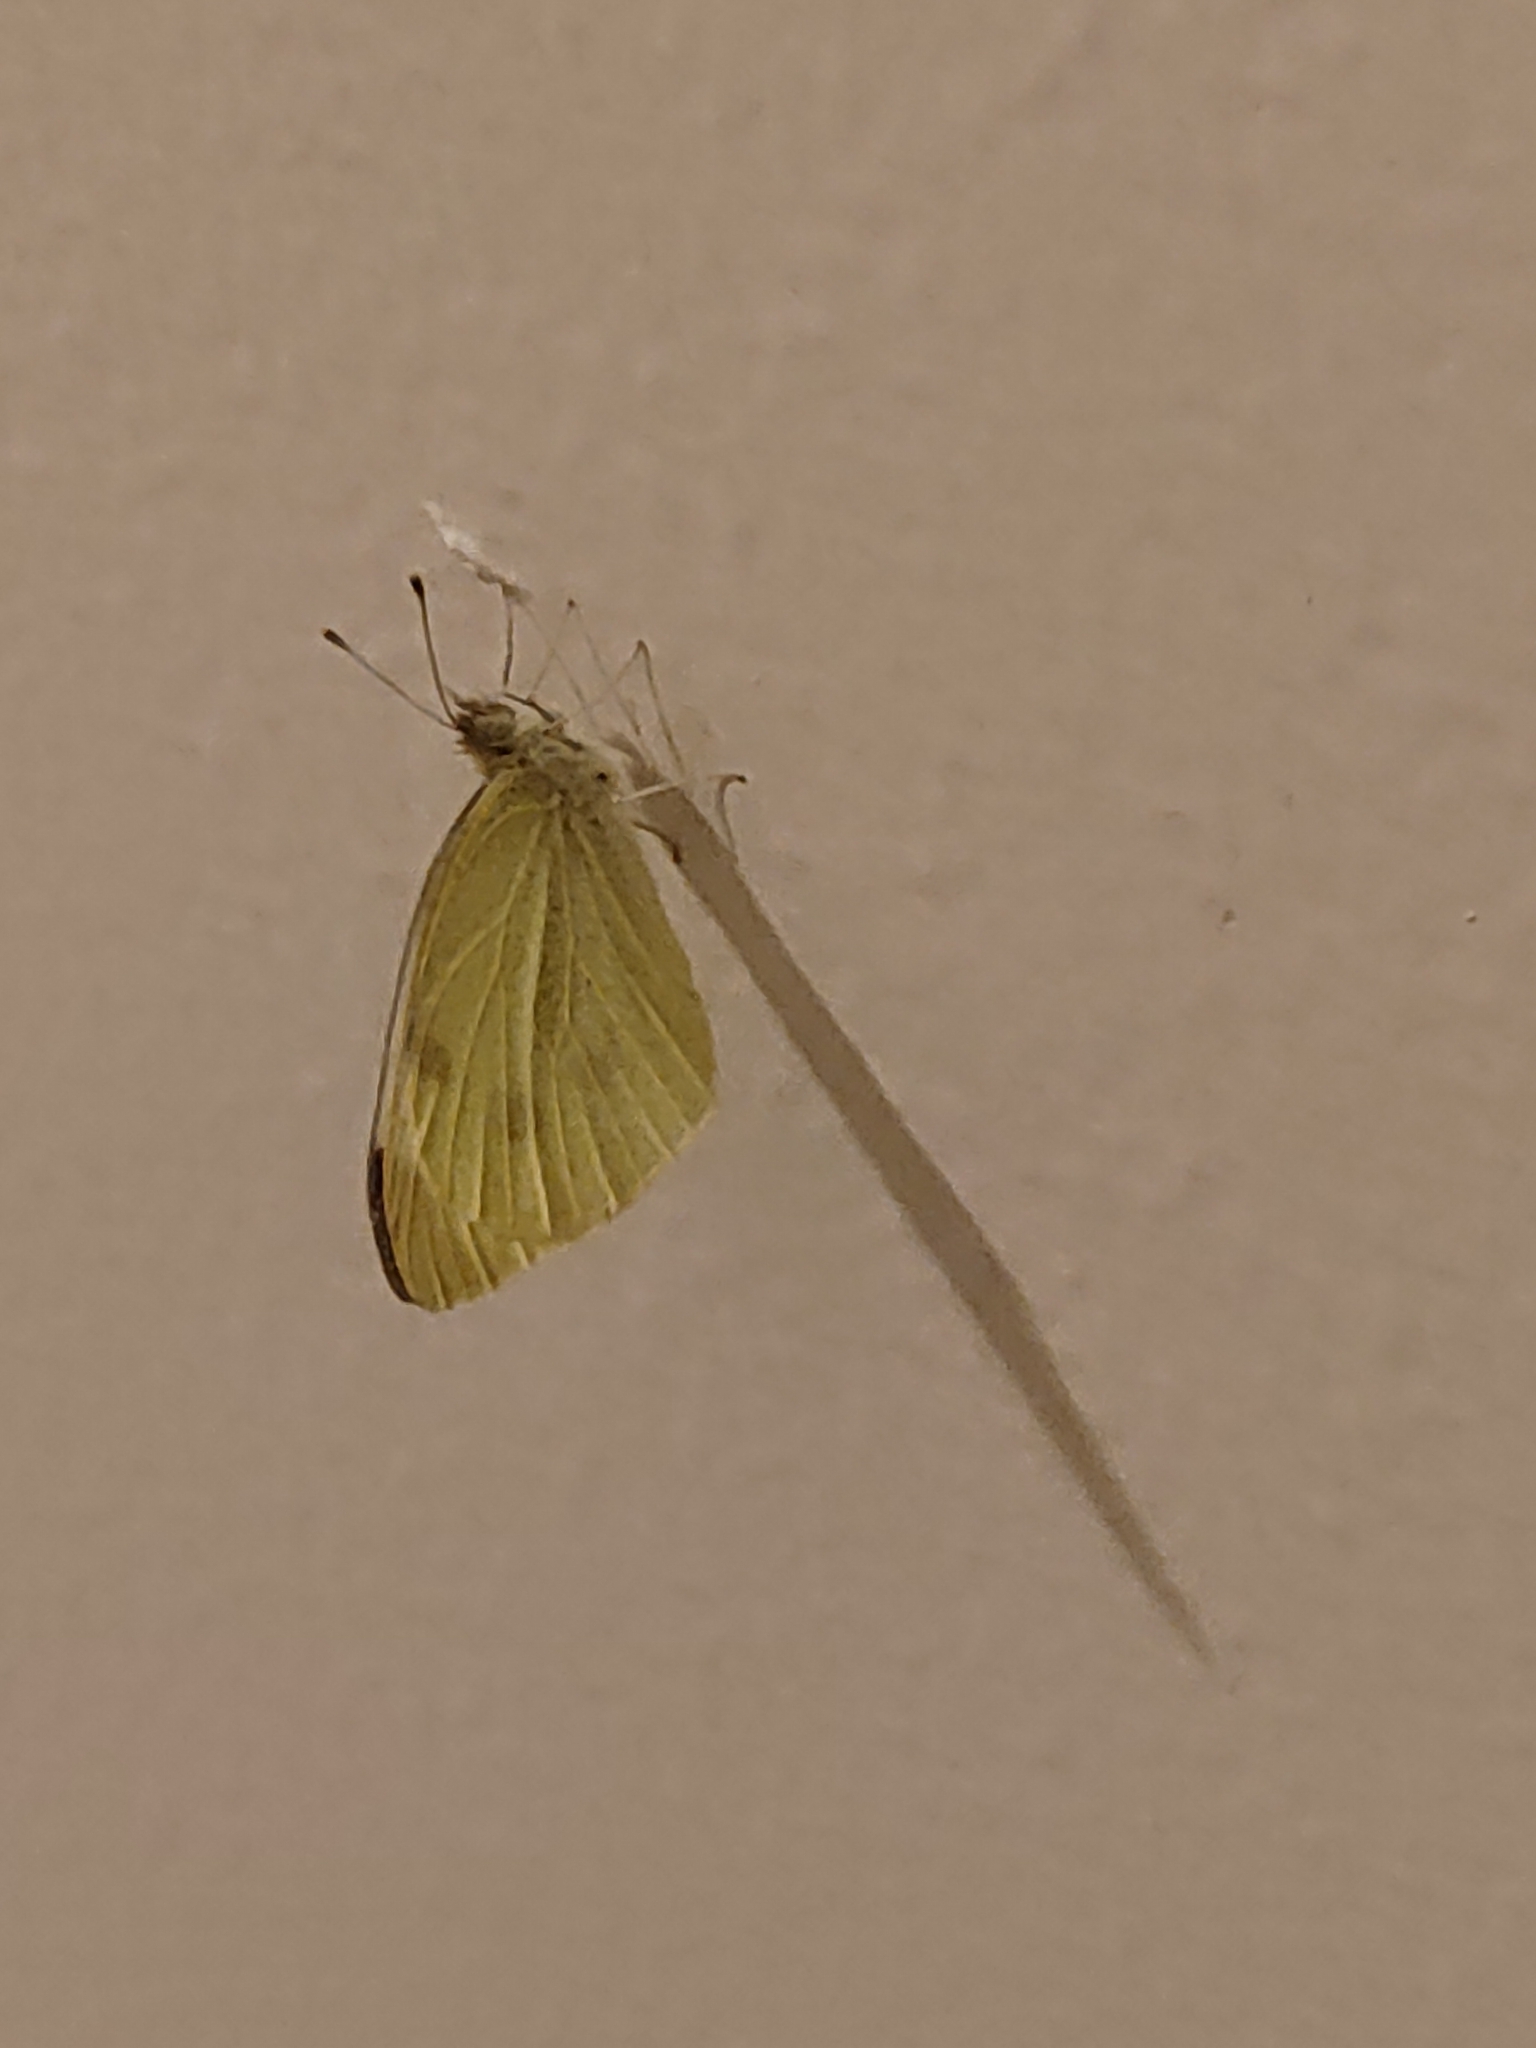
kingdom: Animalia
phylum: Arthropoda
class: Insecta
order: Lepidoptera
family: Pieridae
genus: Pieris
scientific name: Pieris rapae
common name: Small white
